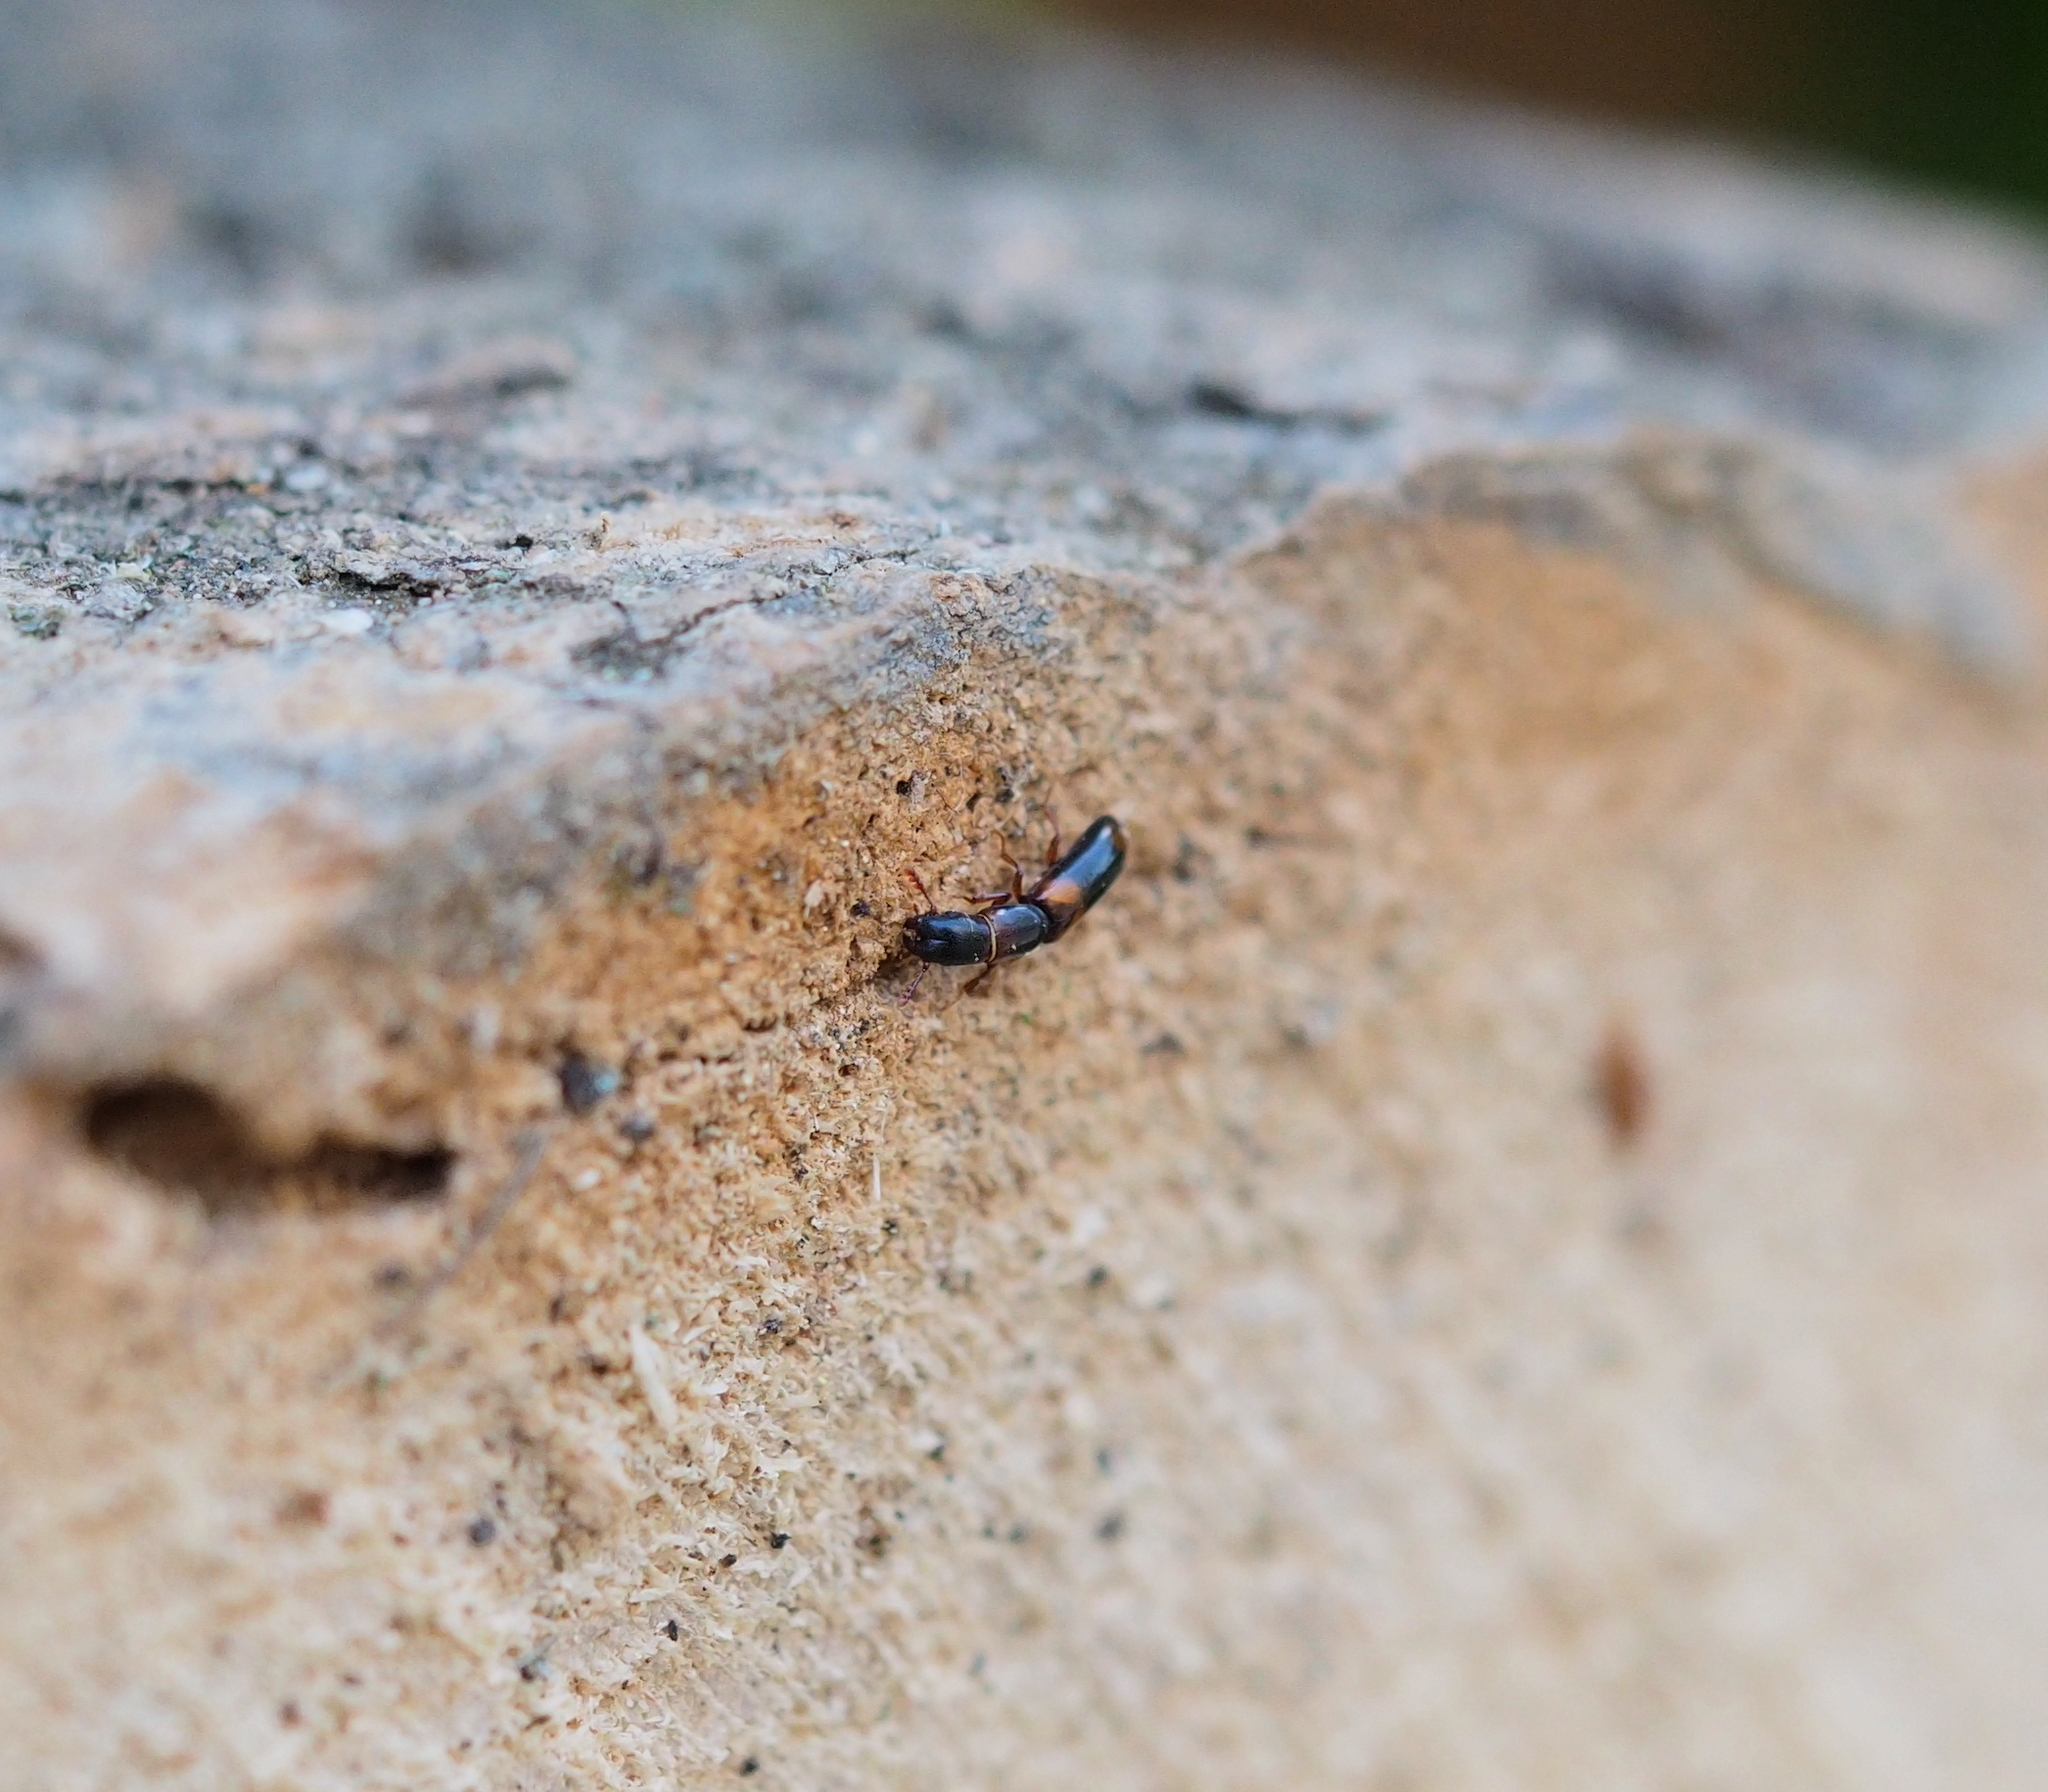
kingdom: Animalia
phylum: Arthropoda
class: Insecta
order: Coleoptera
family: Trogossitidae
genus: Nemozoma
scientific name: Nemozoma caucasicum
